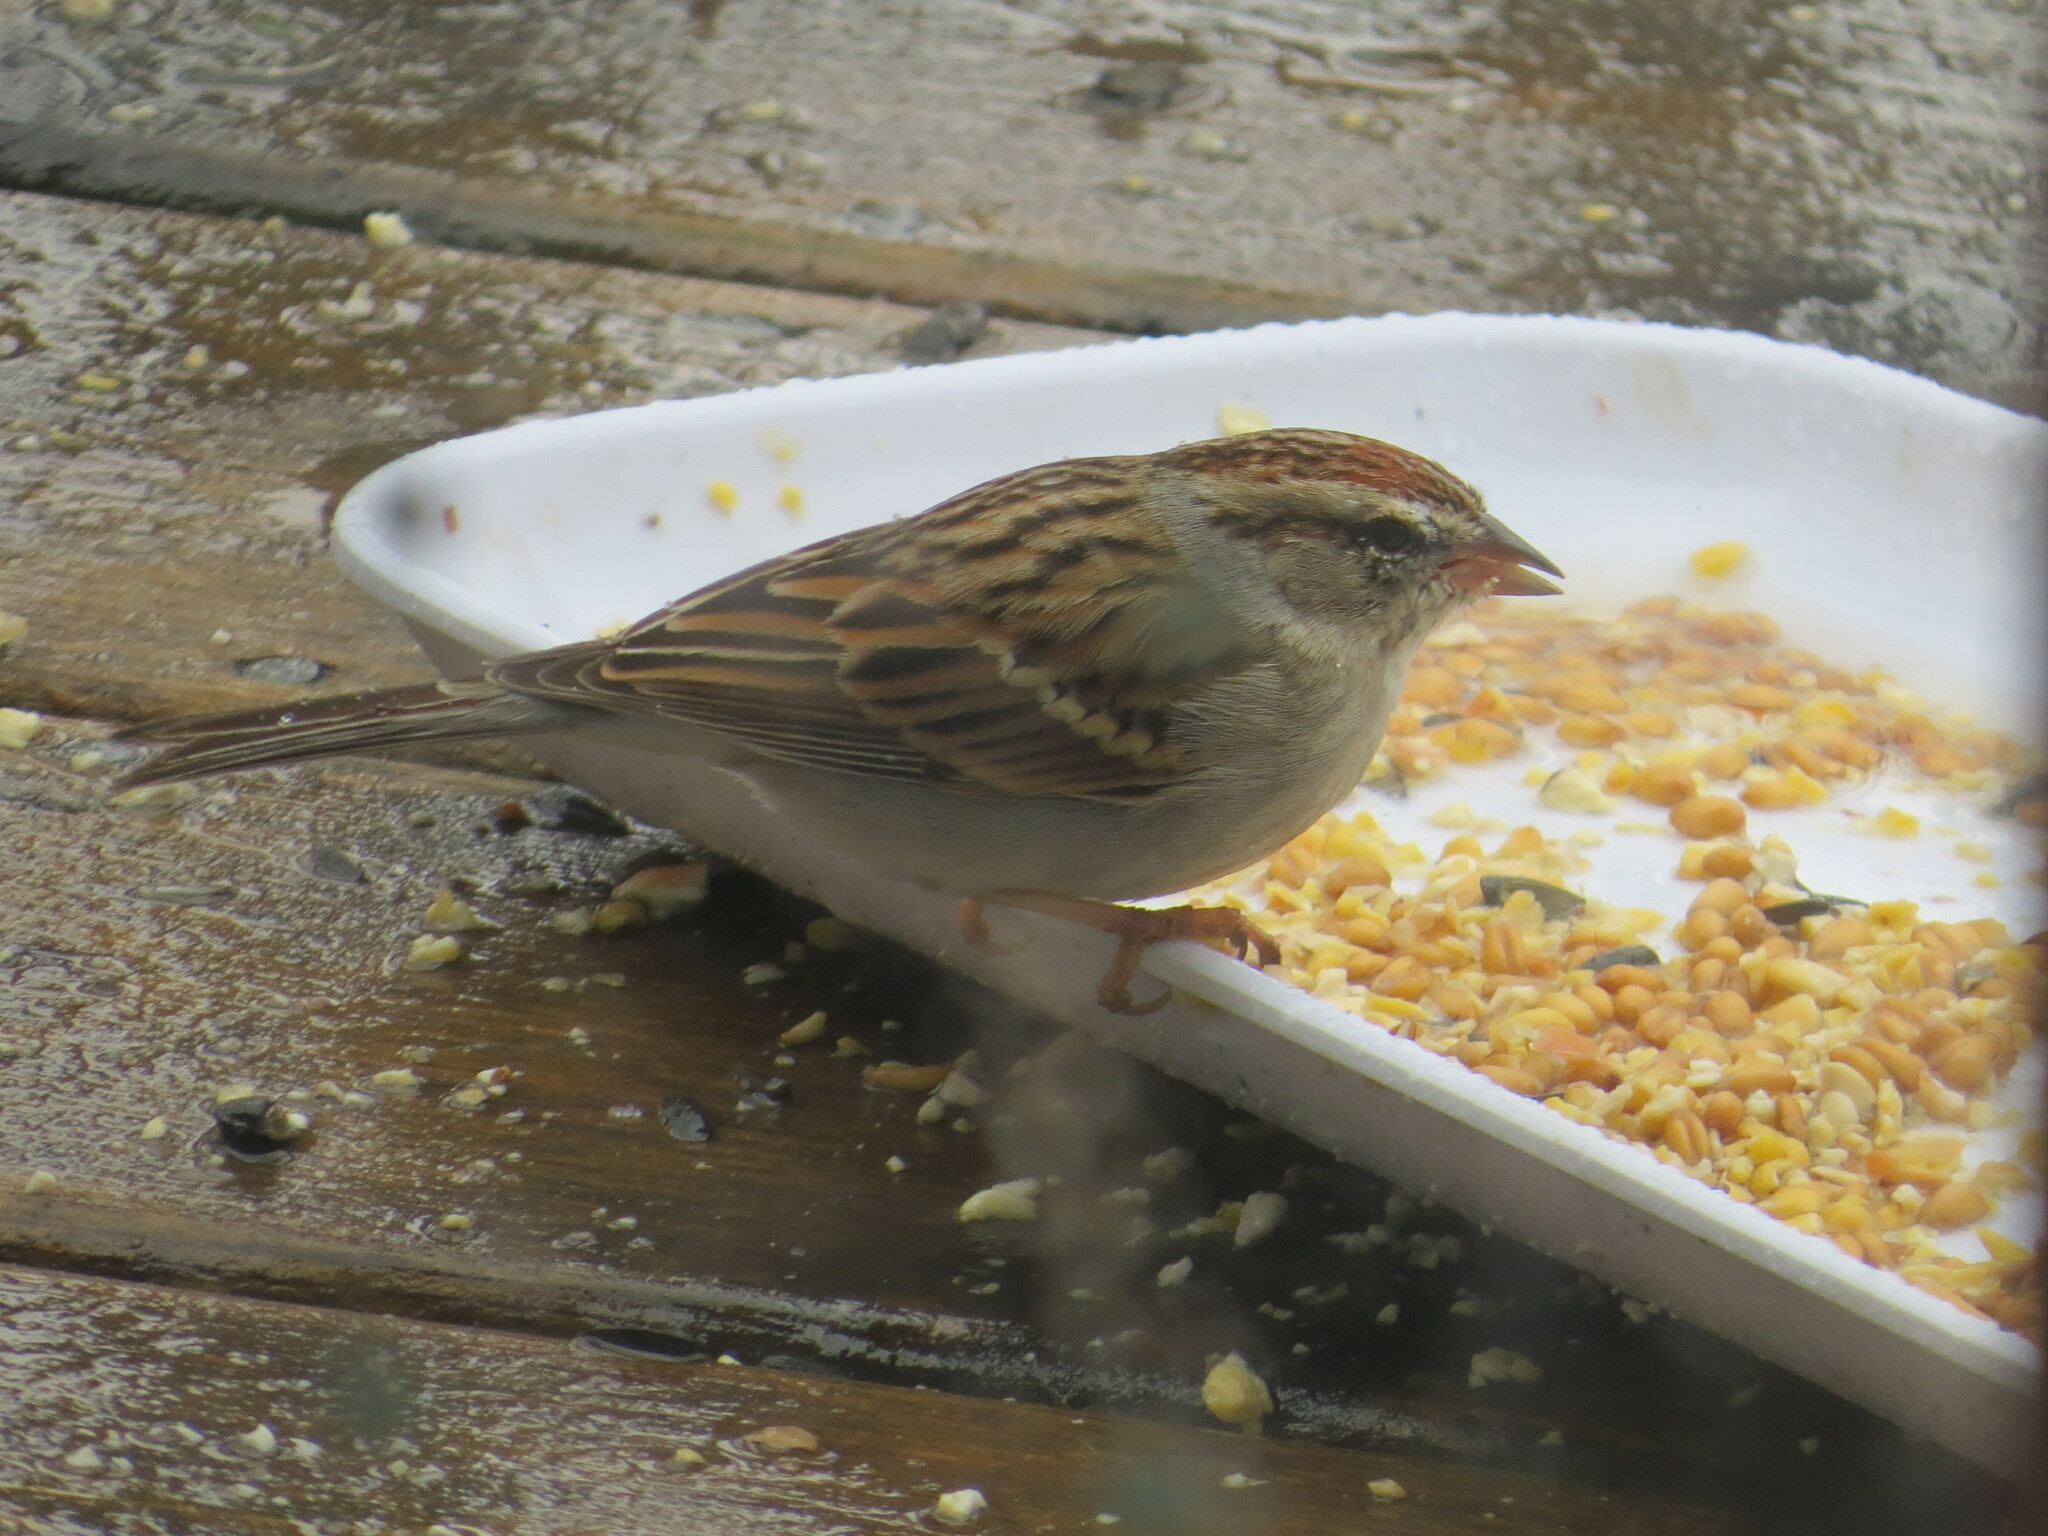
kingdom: Animalia
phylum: Chordata
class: Aves
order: Passeriformes
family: Passerellidae
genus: Spizella
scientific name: Spizella passerina
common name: Chipping sparrow
